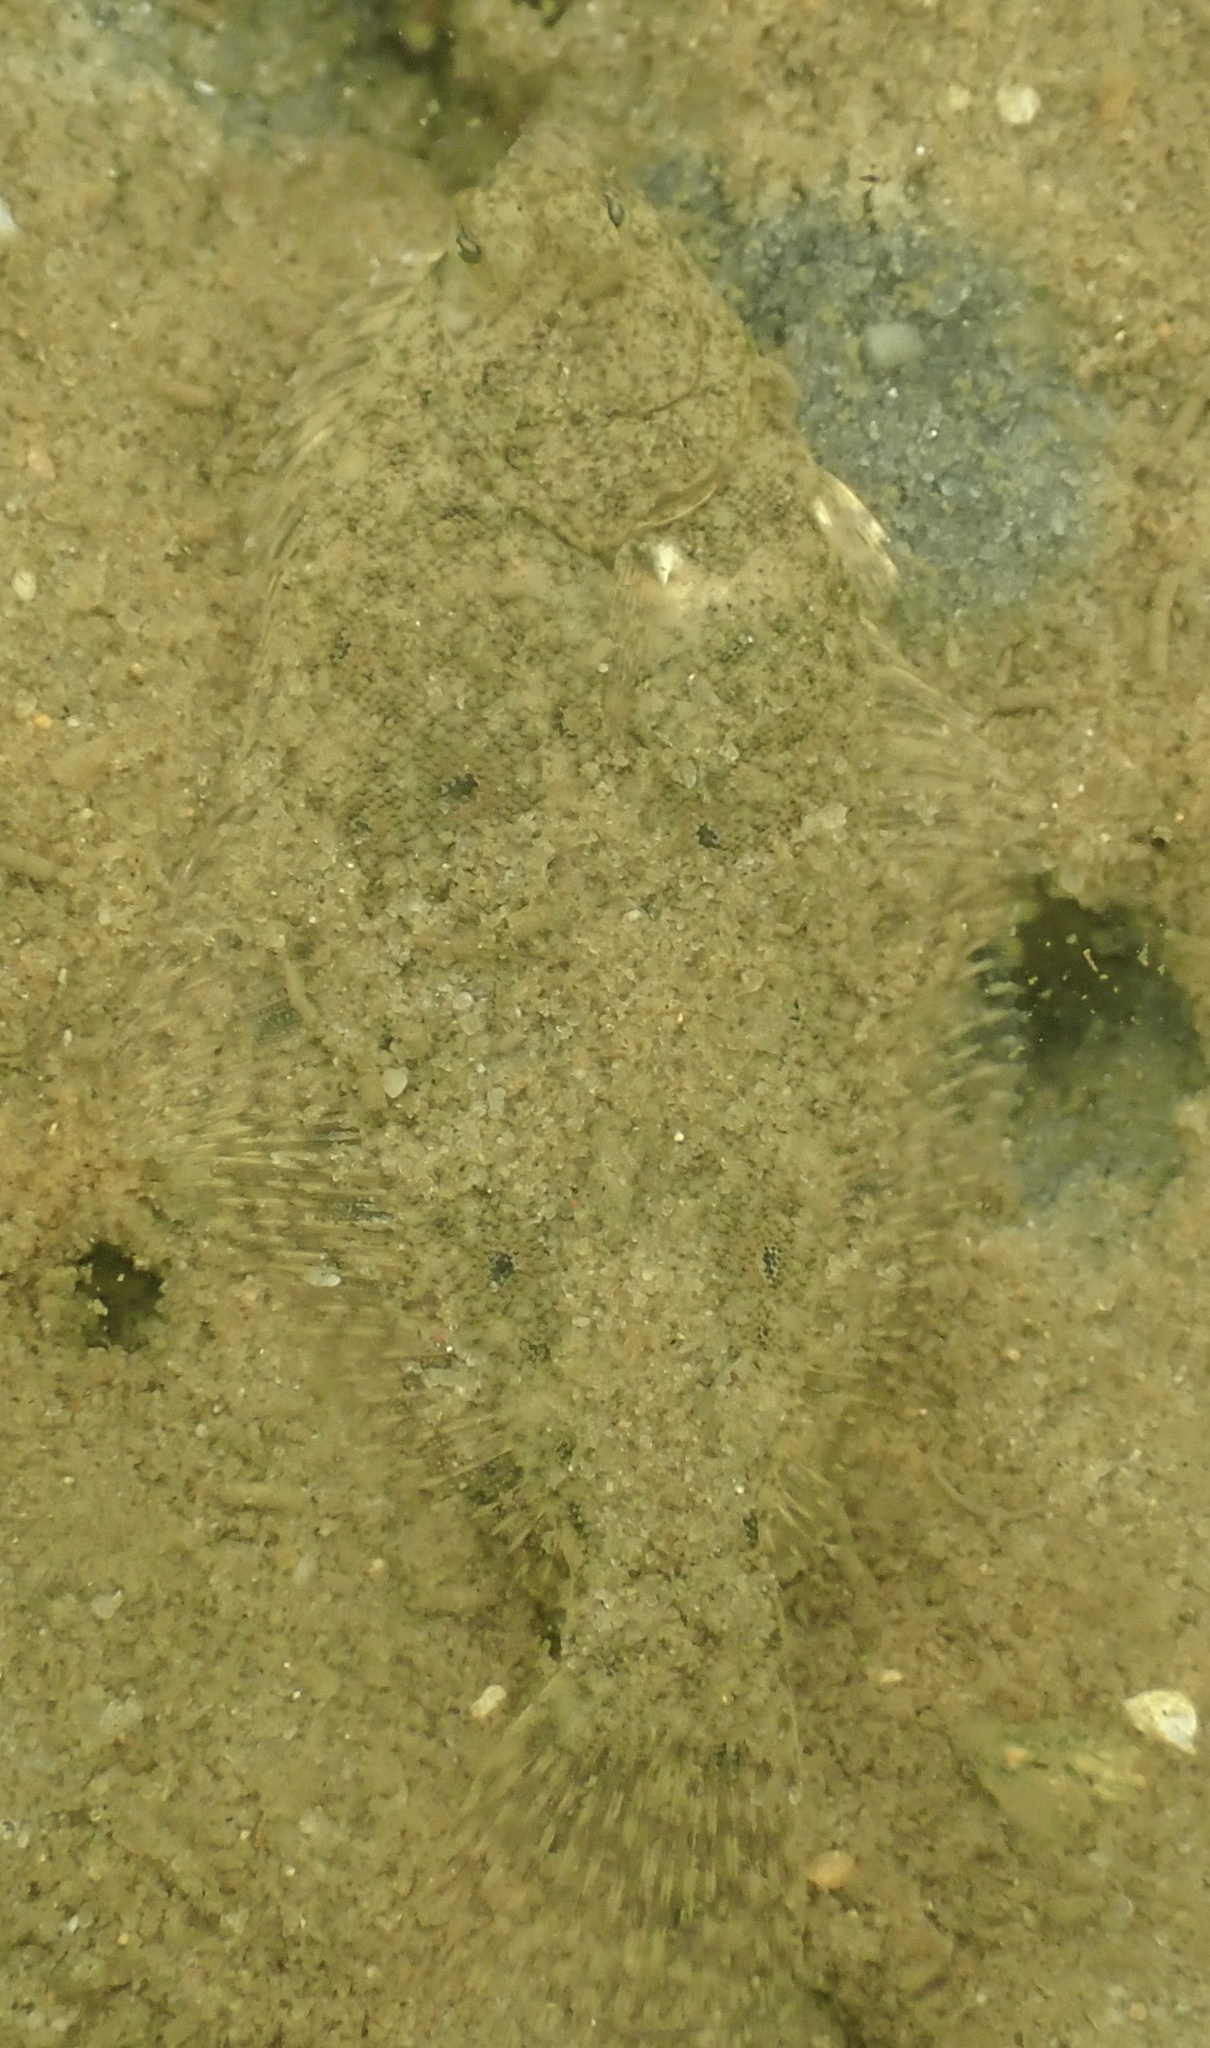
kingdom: Animalia
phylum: Chordata
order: Pleuronectiformes
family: Pleuronectidae
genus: Pseudopleuronectes
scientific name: Pseudopleuronectes americanus
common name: Black backs
